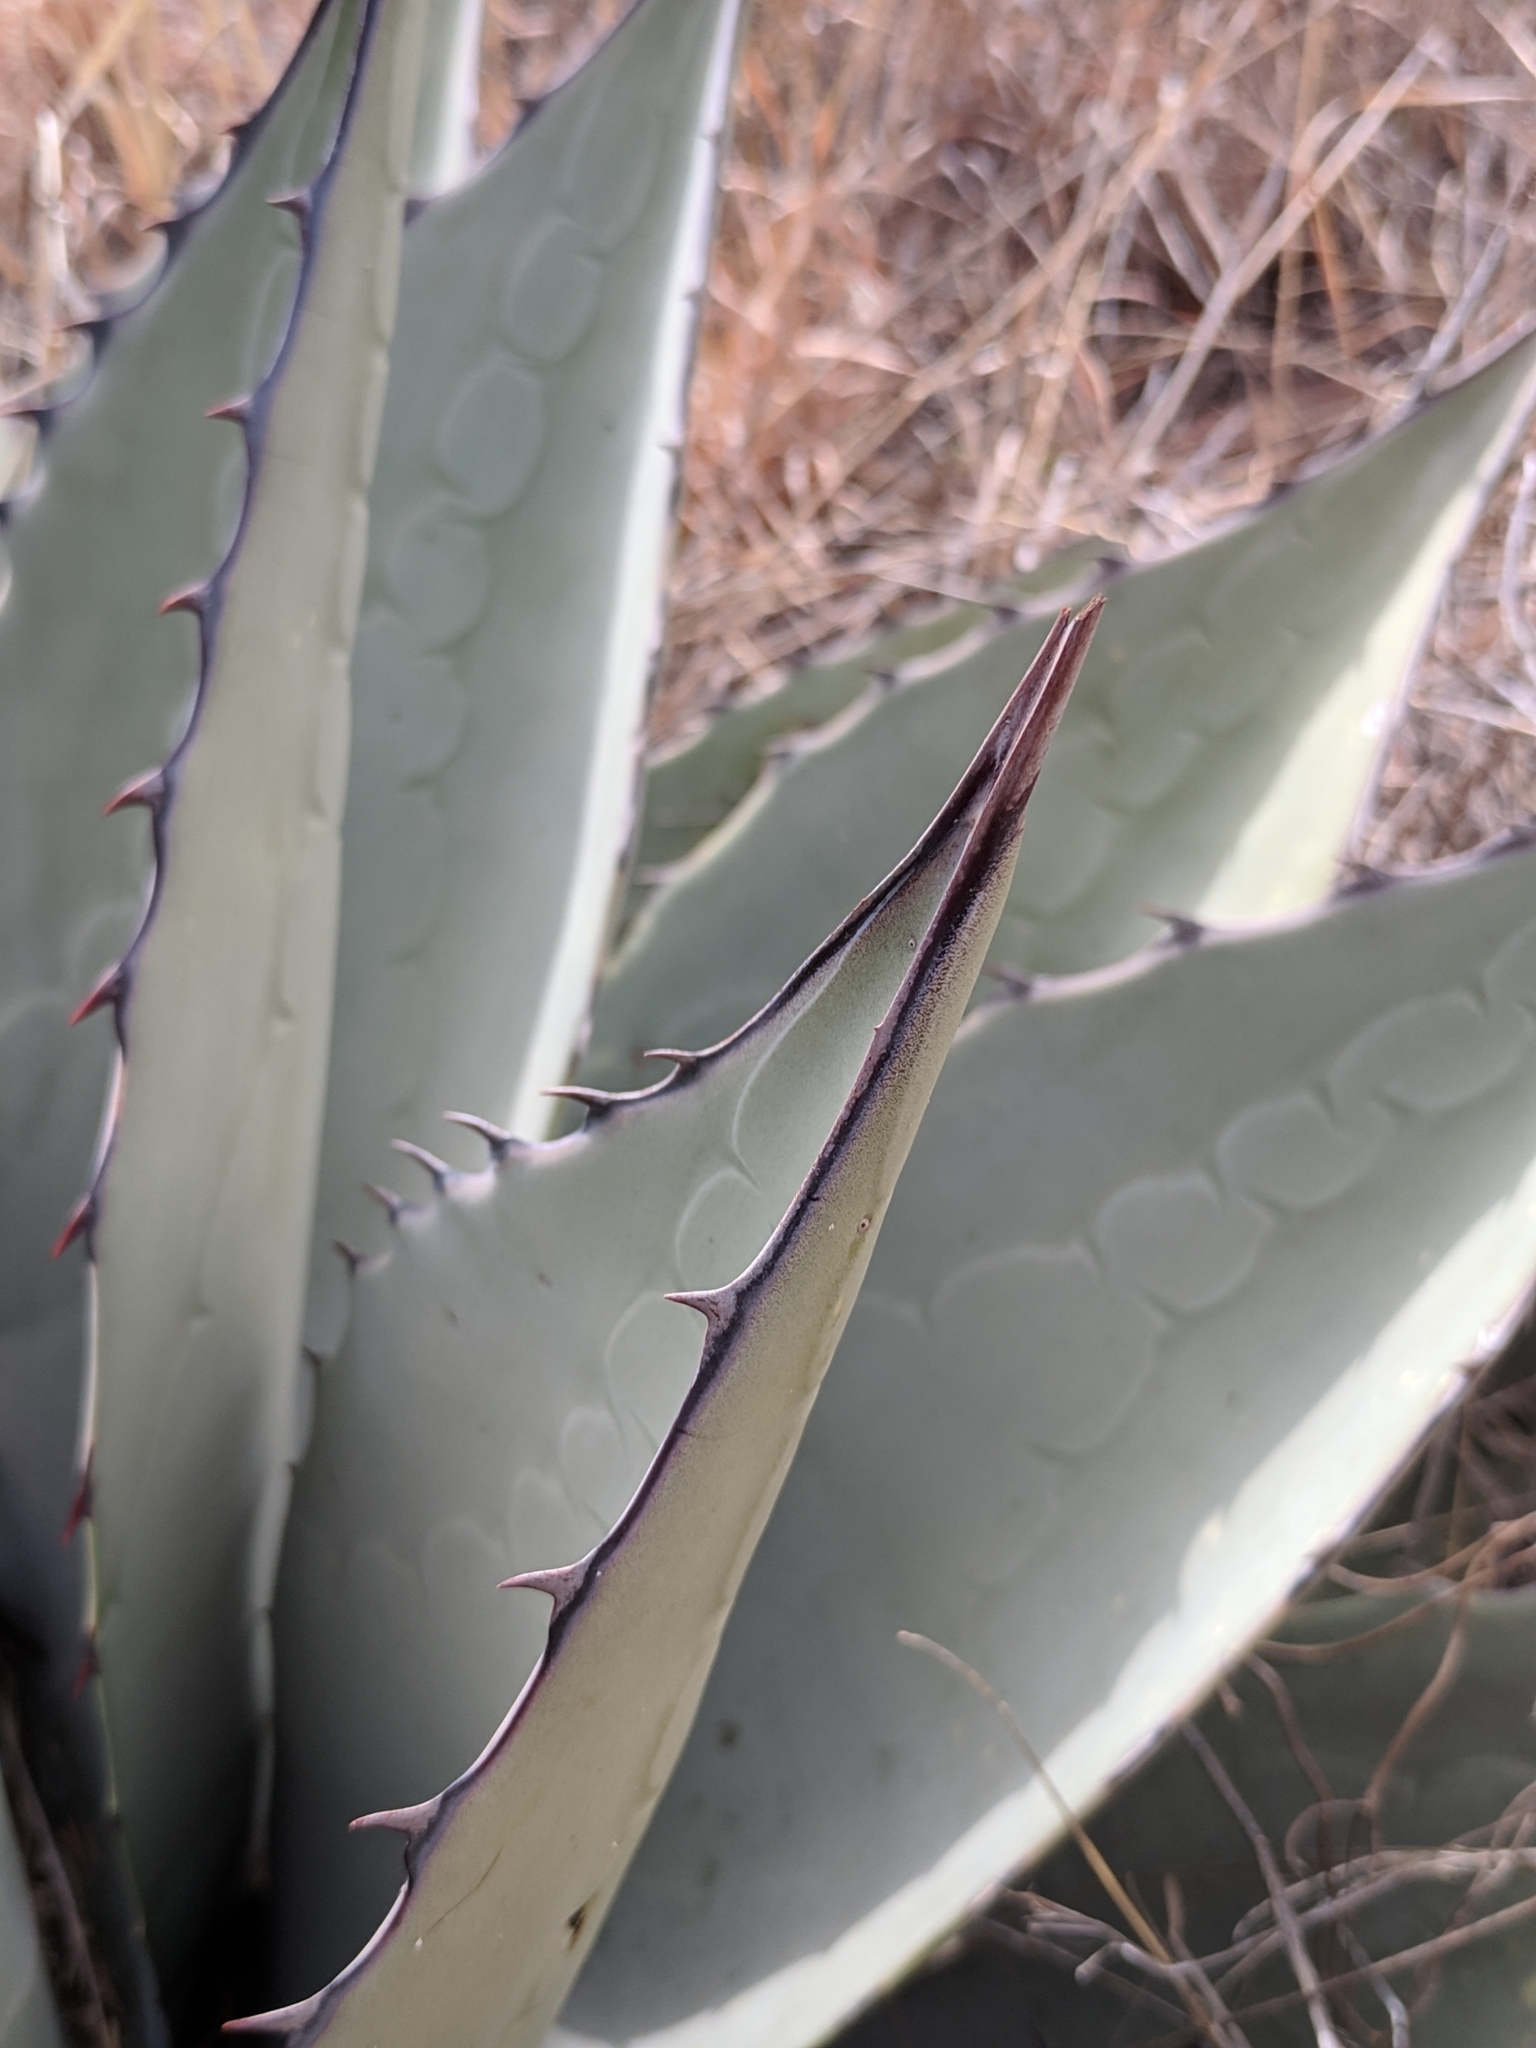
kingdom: Plantae
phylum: Tracheophyta
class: Liliopsida
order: Asparagales
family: Asparagaceae
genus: Agave
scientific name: Agave havardiana
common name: Havard agave
